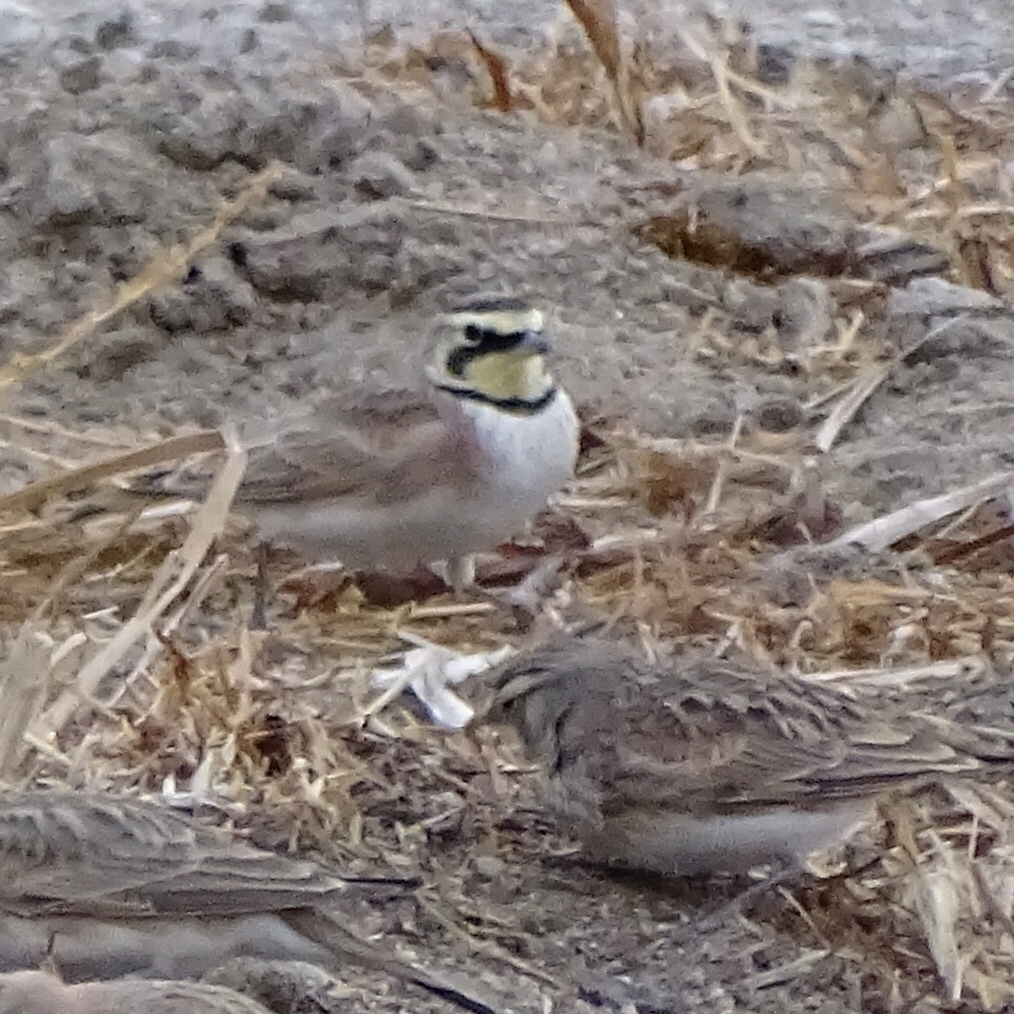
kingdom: Animalia
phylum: Chordata
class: Aves
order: Passeriformes
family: Alaudidae
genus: Eremophila
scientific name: Eremophila alpestris
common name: Horned lark
